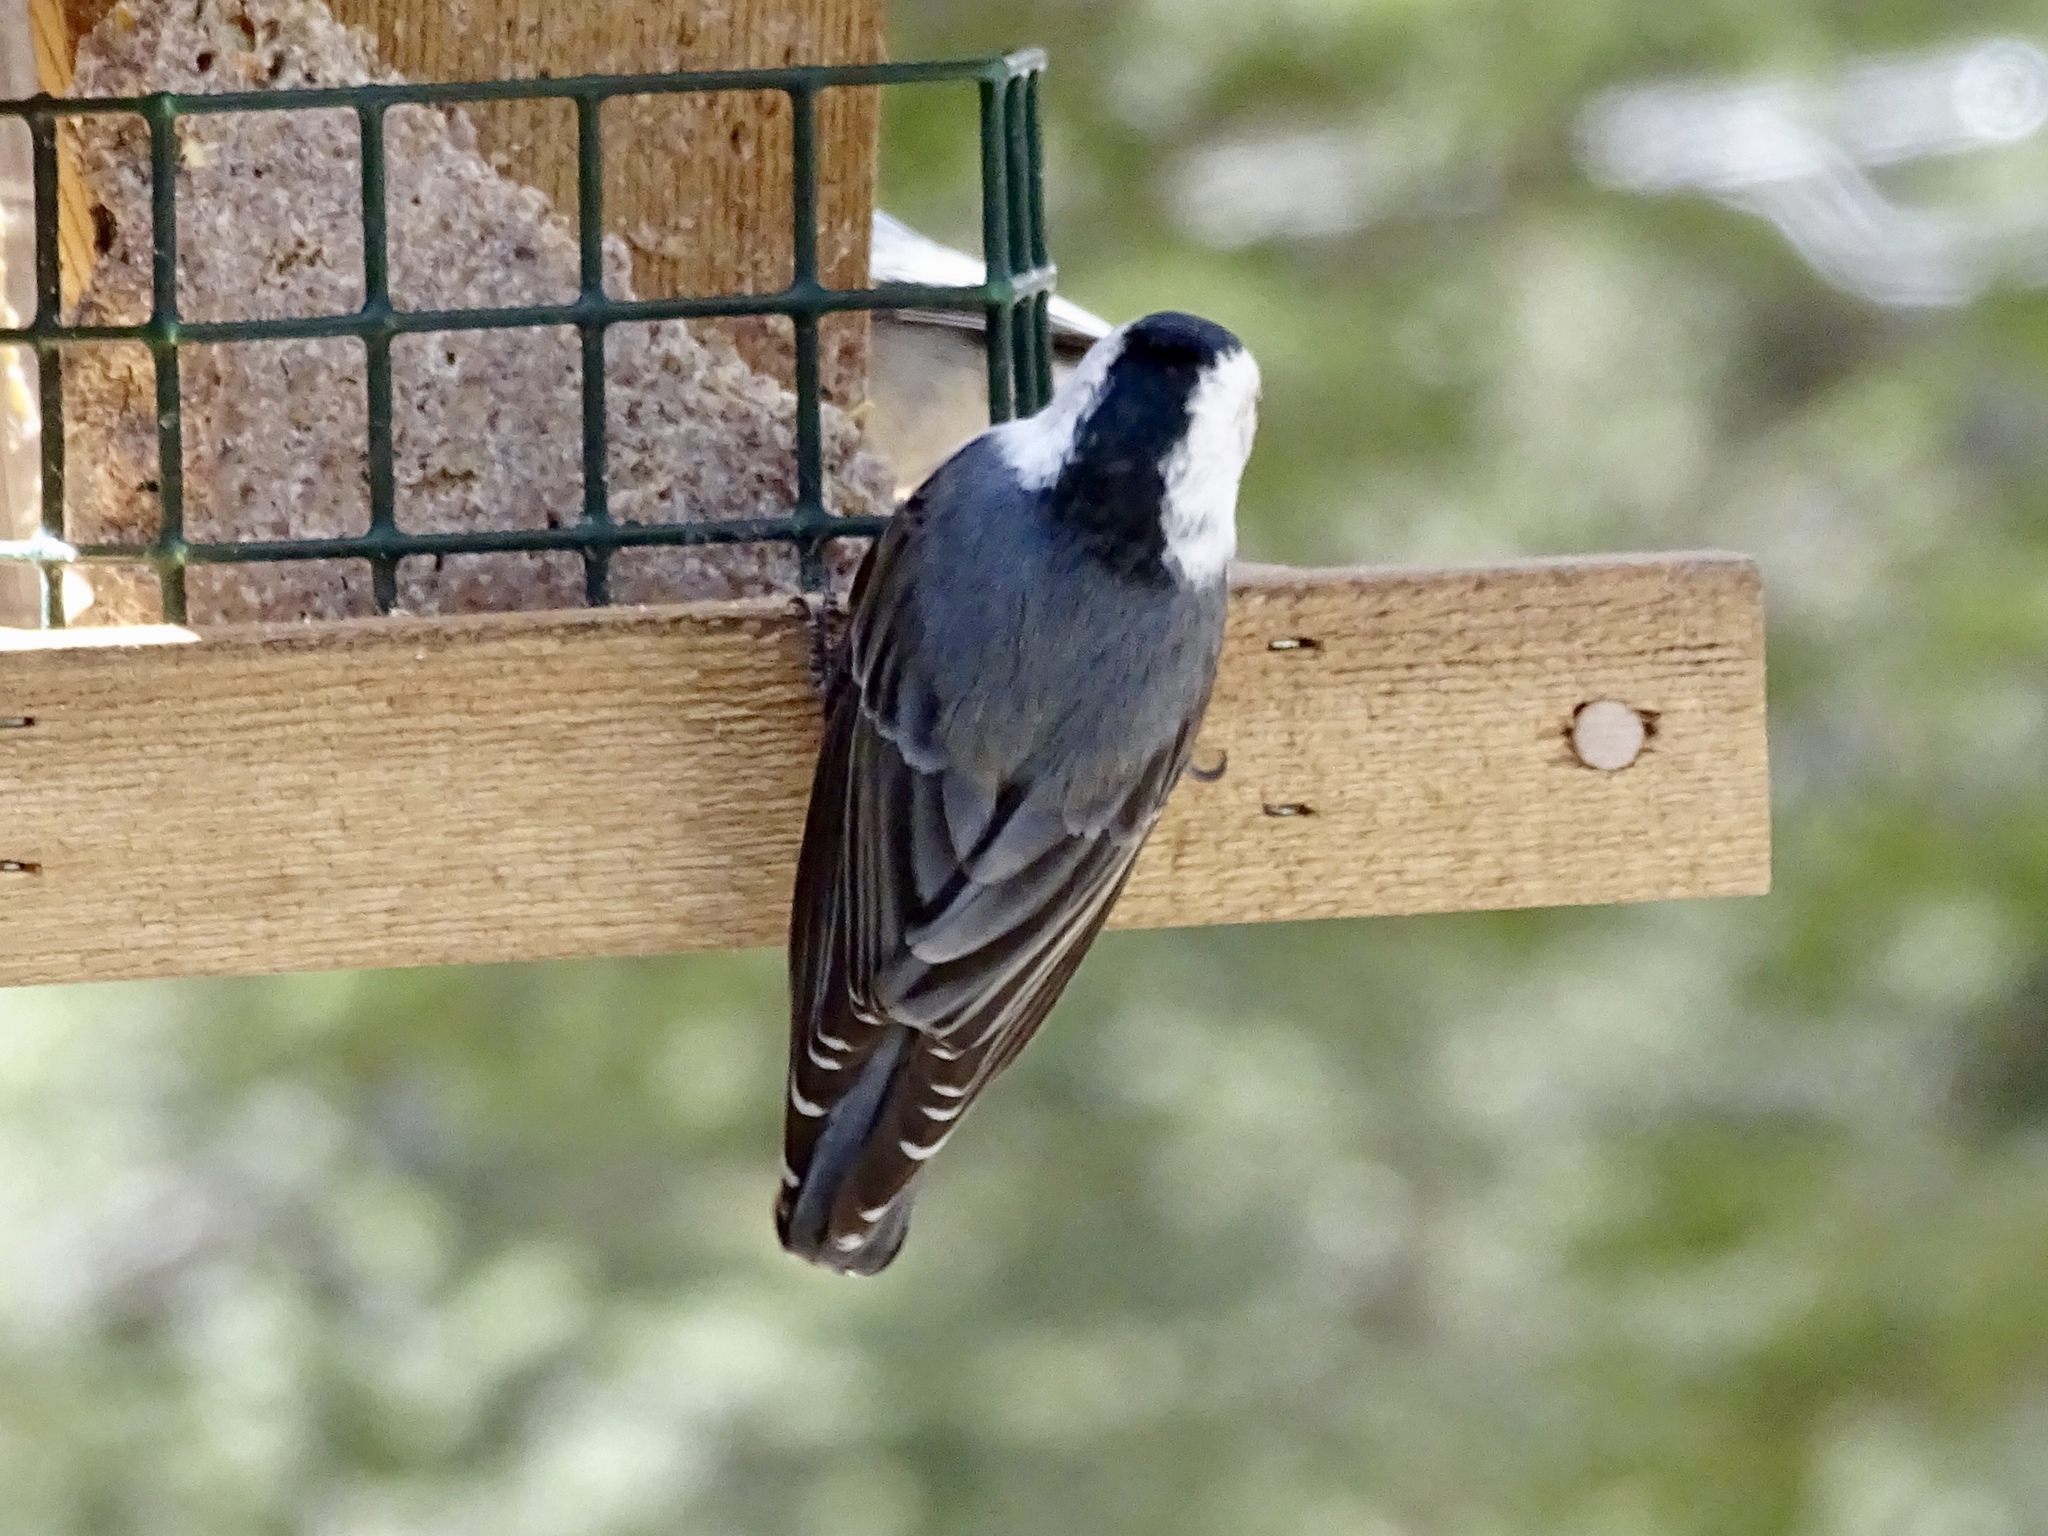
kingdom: Animalia
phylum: Chordata
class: Aves
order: Passeriformes
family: Sittidae
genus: Sitta
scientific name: Sitta carolinensis
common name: White-breasted nuthatch
